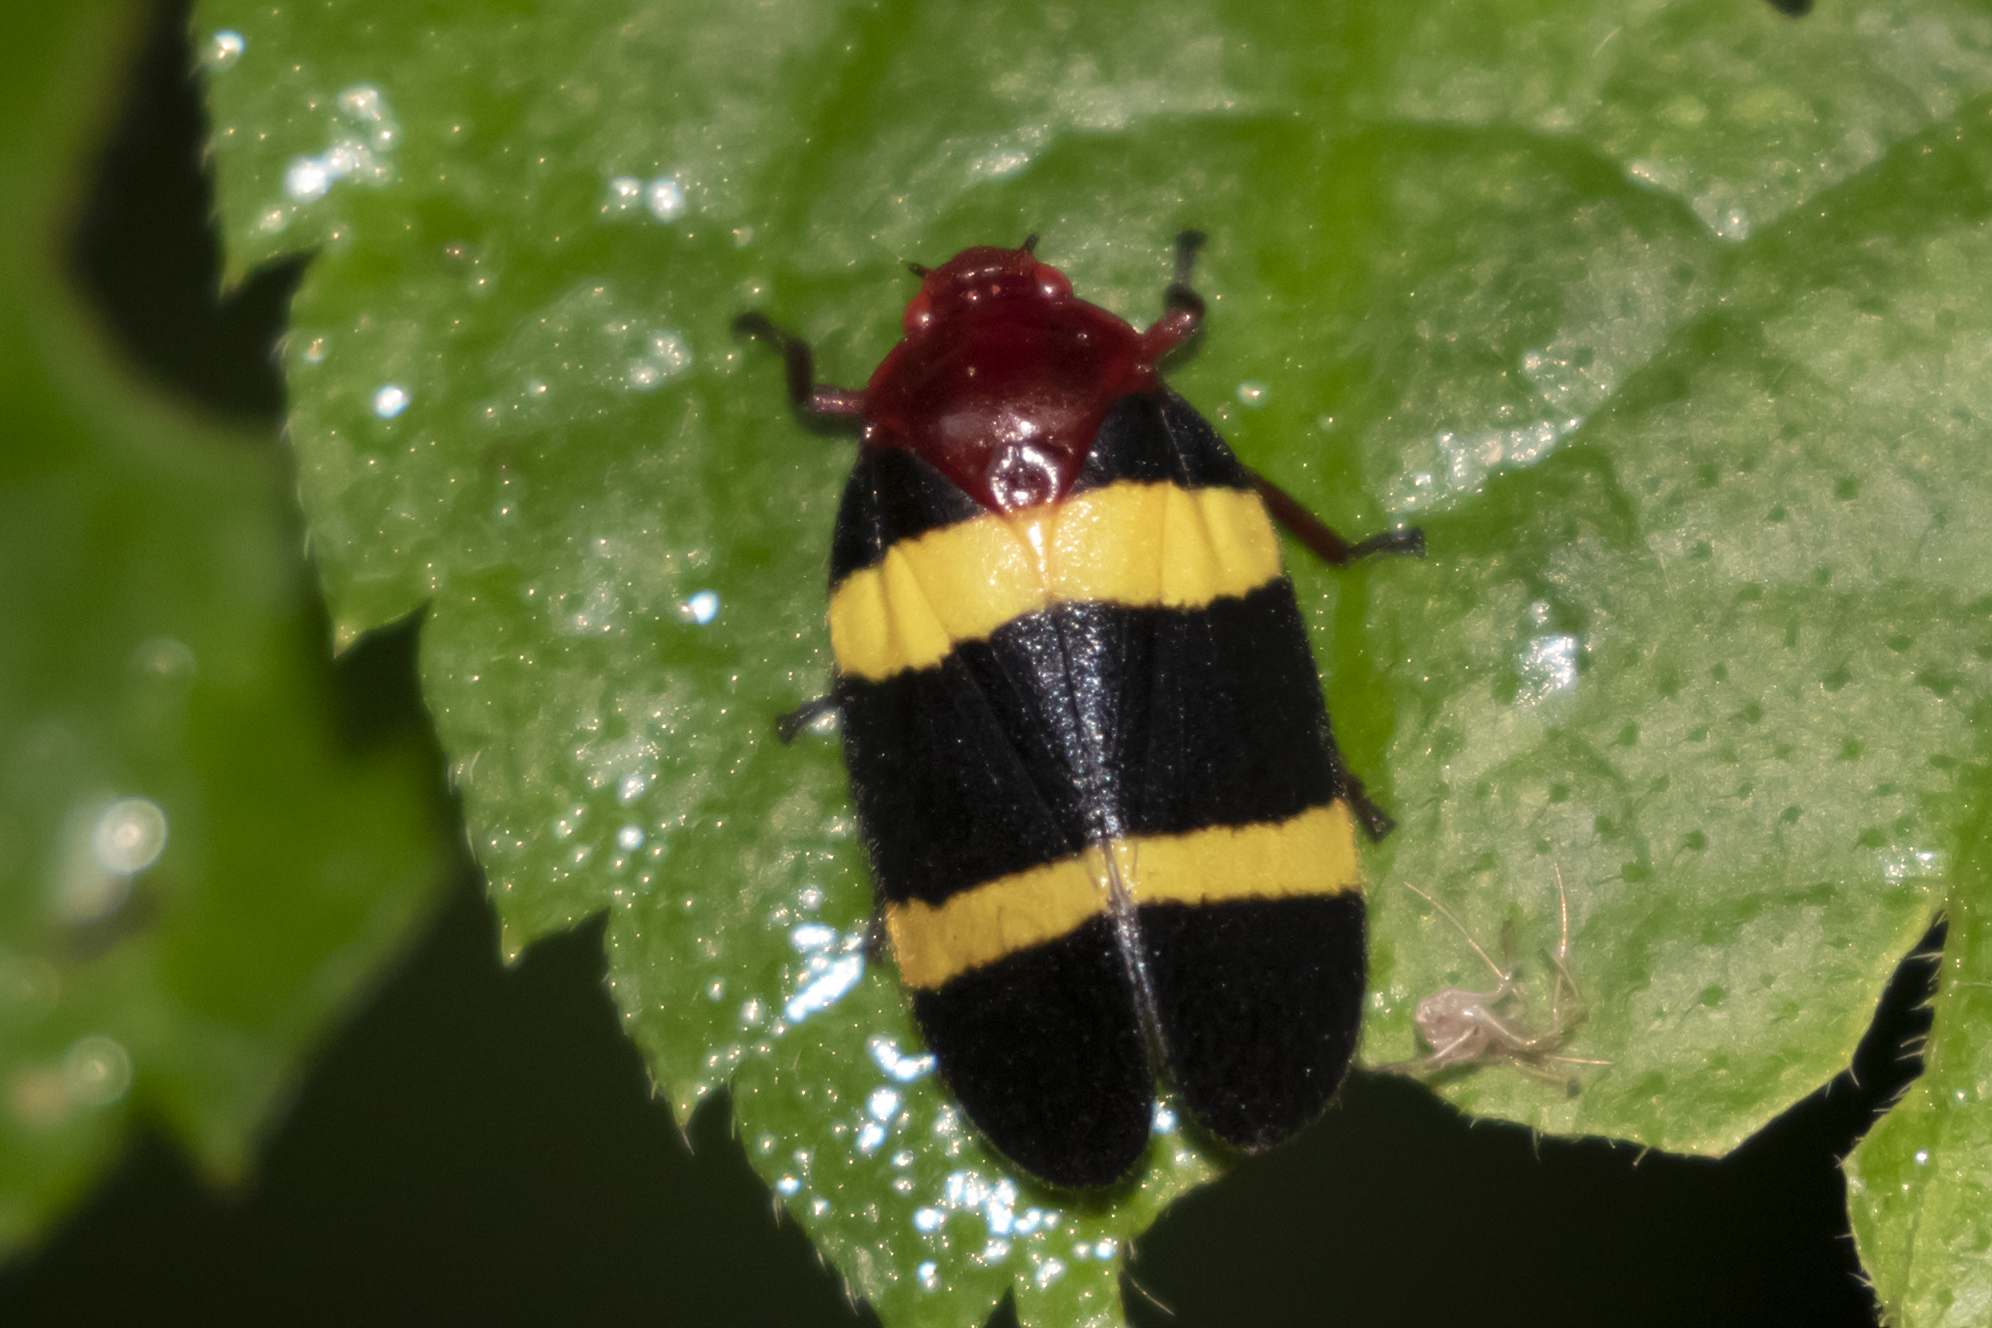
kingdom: Animalia
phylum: Arthropoda
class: Insecta
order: Hemiptera
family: Cercopidae
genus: Sphenorhina
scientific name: Sphenorhina rubra
